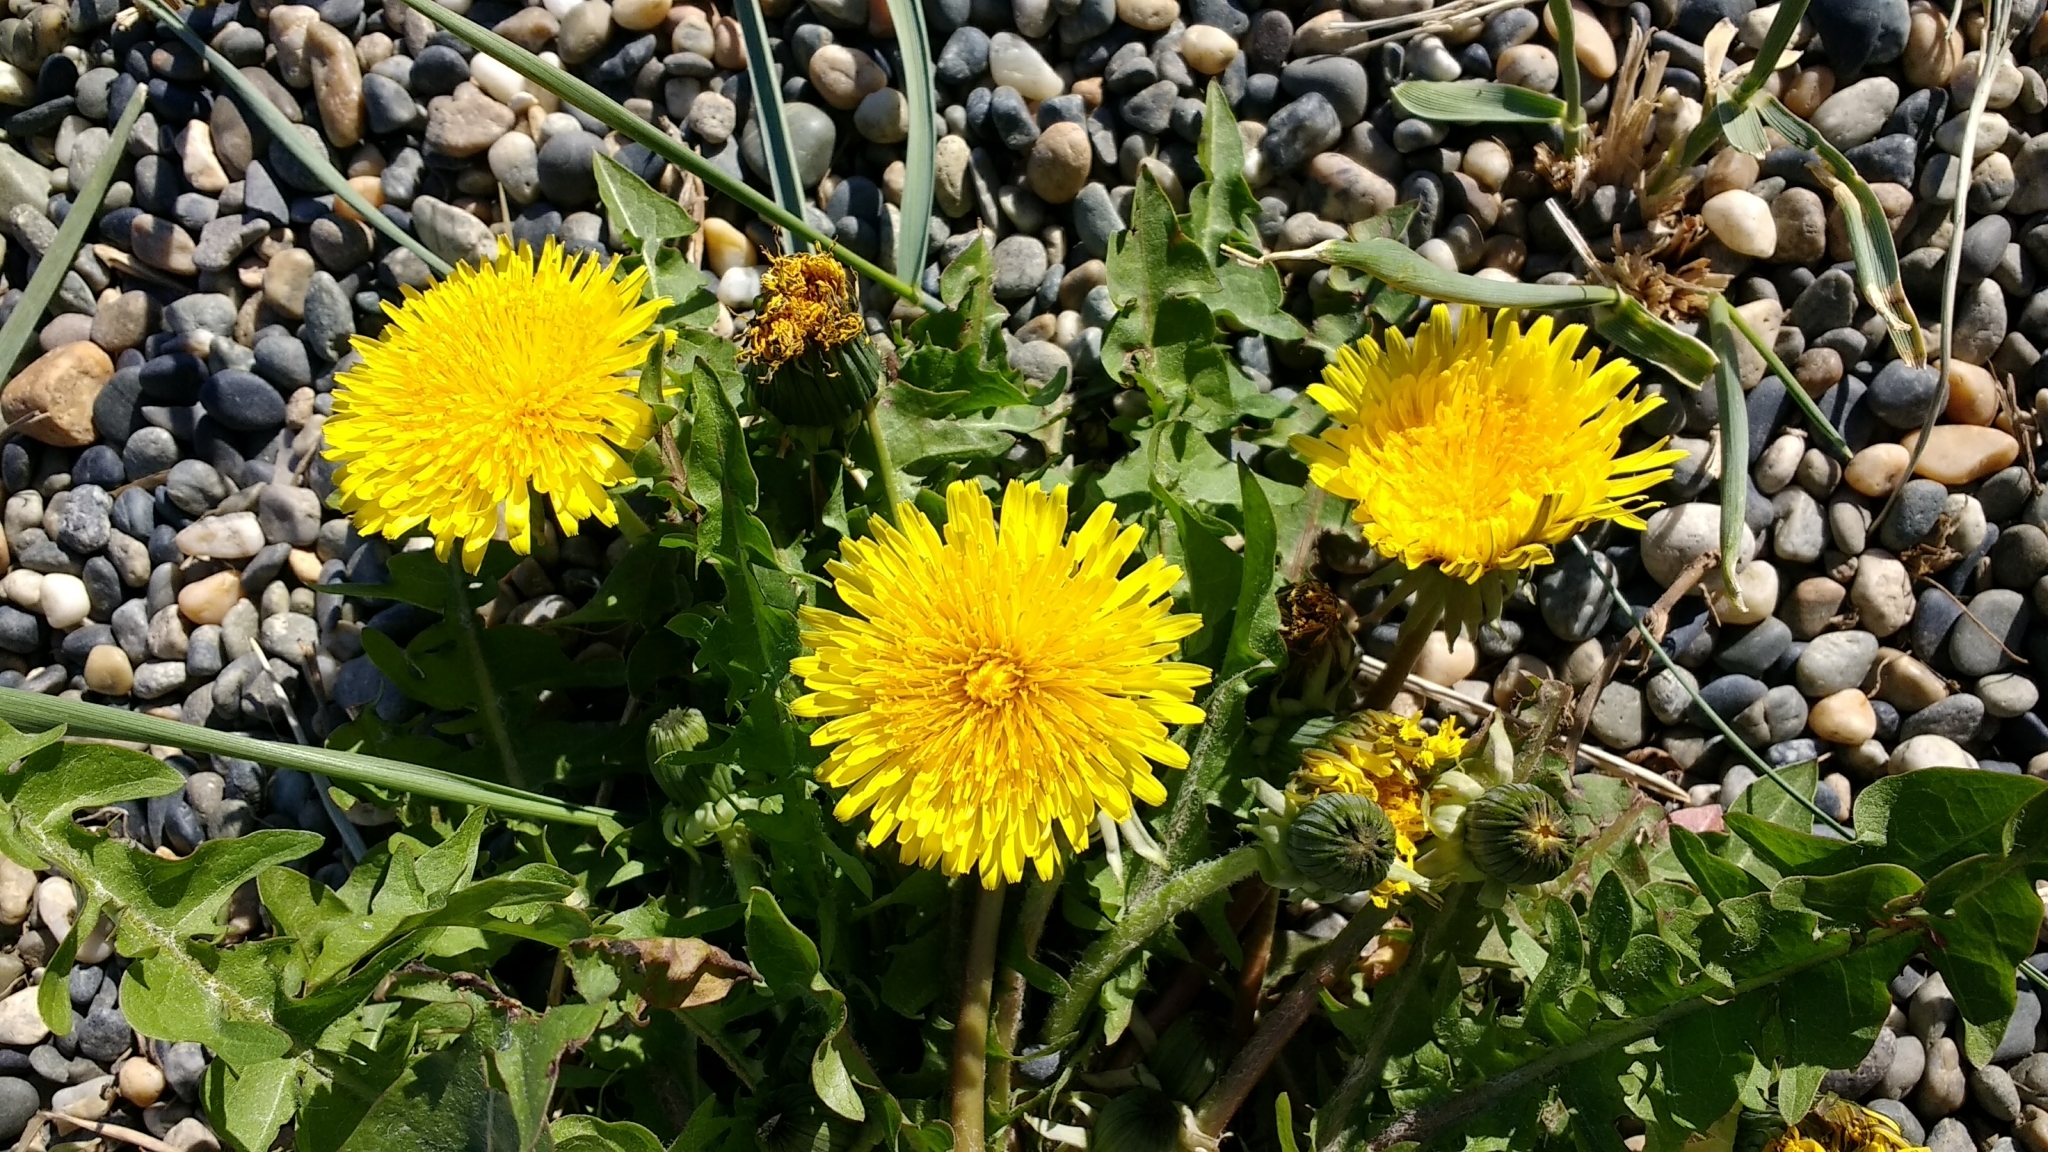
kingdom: Plantae
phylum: Tracheophyta
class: Magnoliopsida
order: Asterales
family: Asteraceae
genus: Taraxacum
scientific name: Taraxacum officinale
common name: Common dandelion
